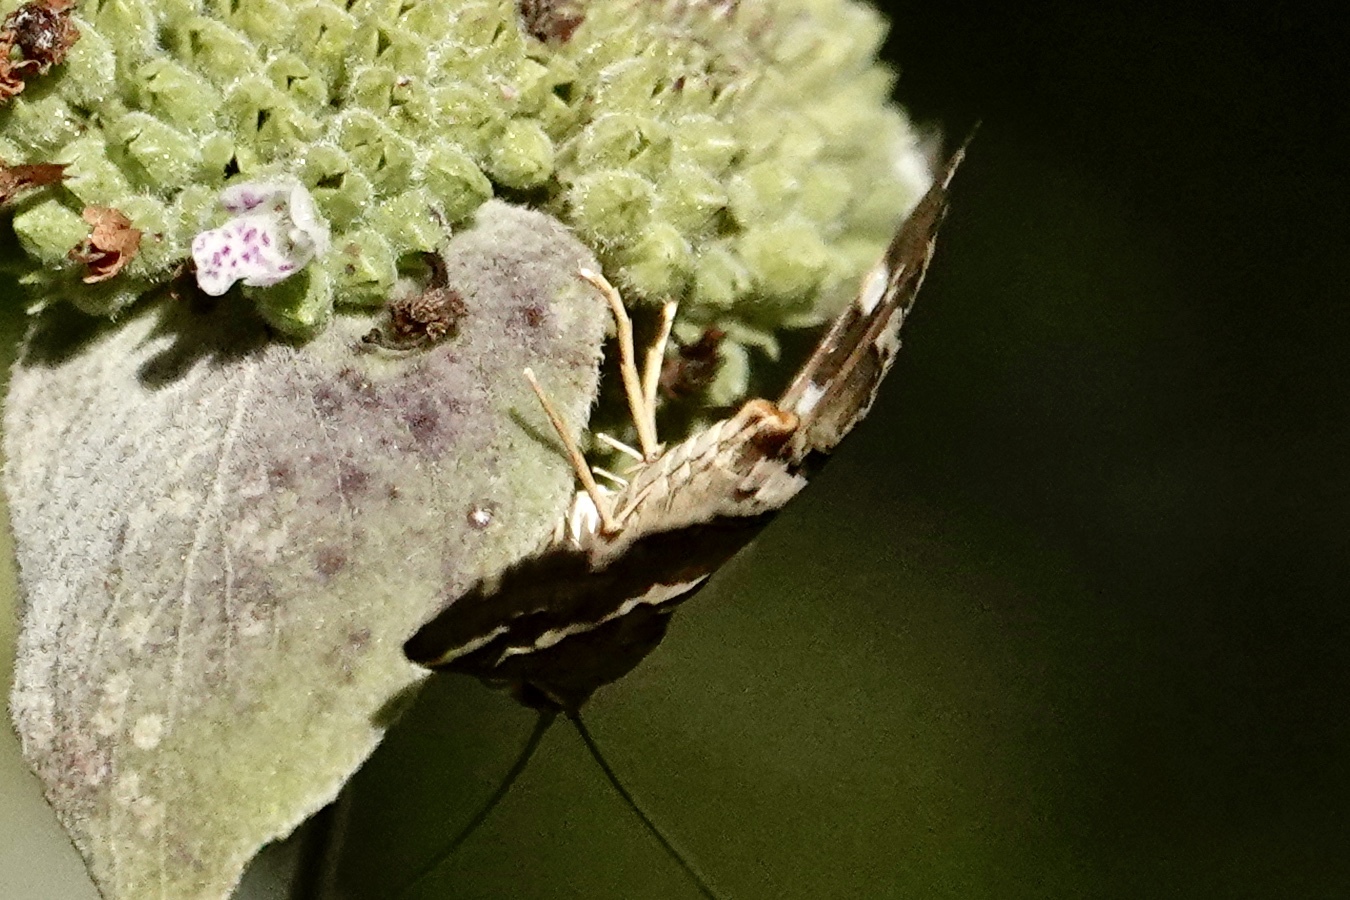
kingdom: Animalia
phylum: Arthropoda
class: Insecta
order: Lepidoptera
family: Crambidae
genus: Spoladea
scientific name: Spoladea recurvalis
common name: Beet webworm moth
